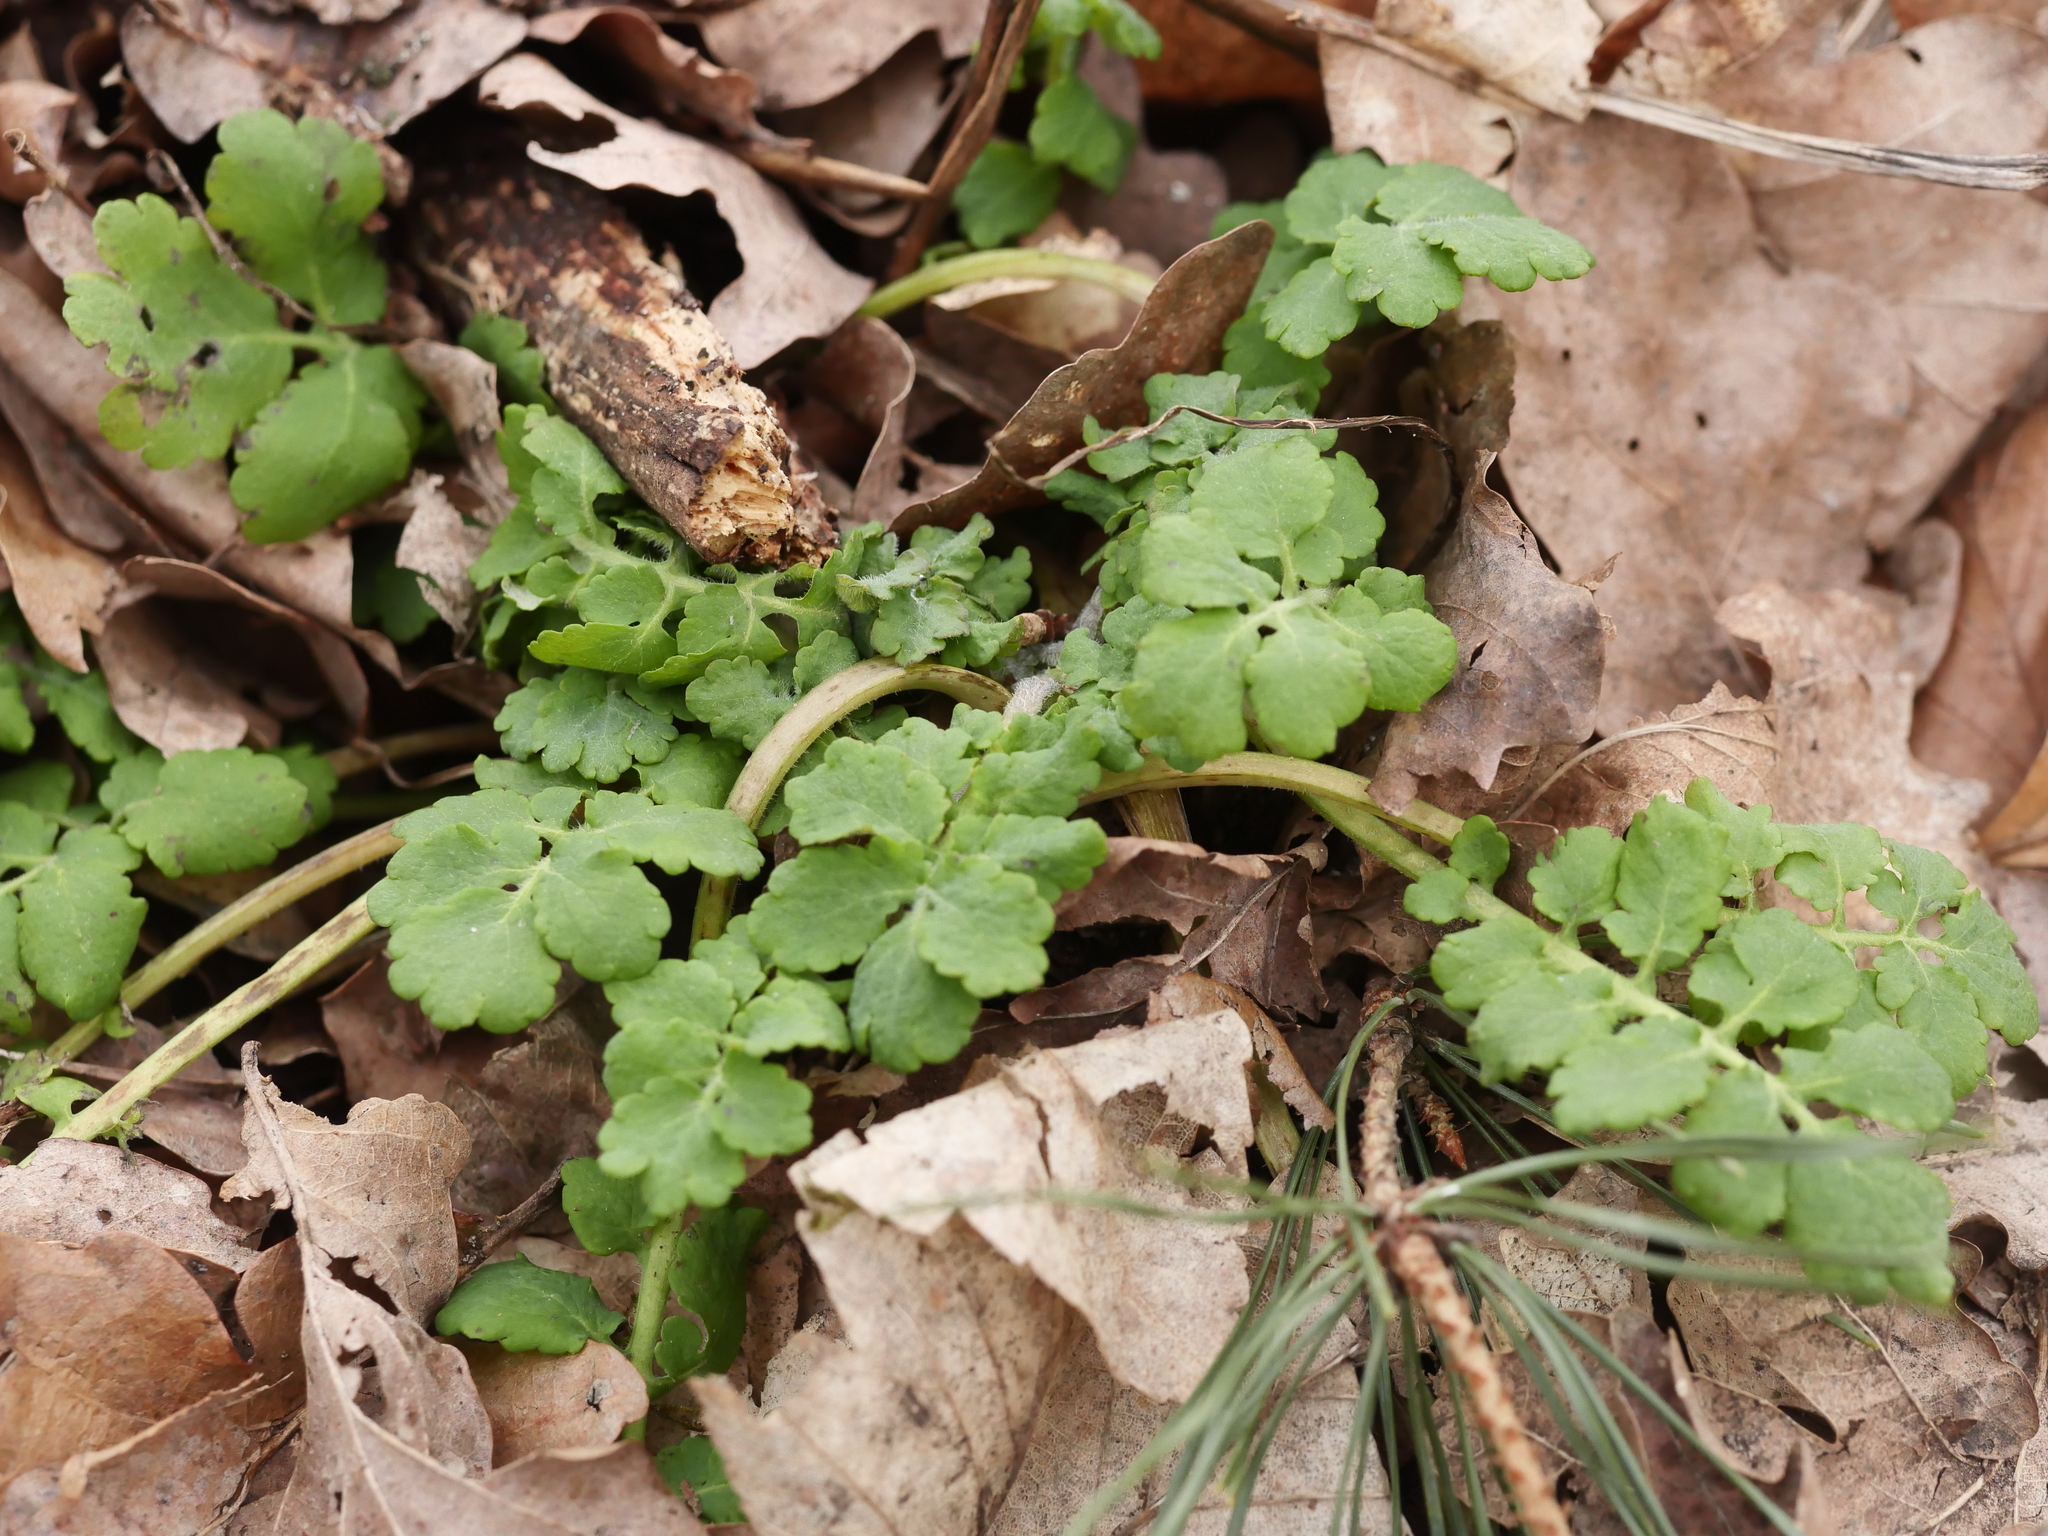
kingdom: Plantae
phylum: Tracheophyta
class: Magnoliopsida
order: Ranunculales
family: Papaveraceae
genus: Chelidonium
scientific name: Chelidonium majus
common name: Greater celandine
